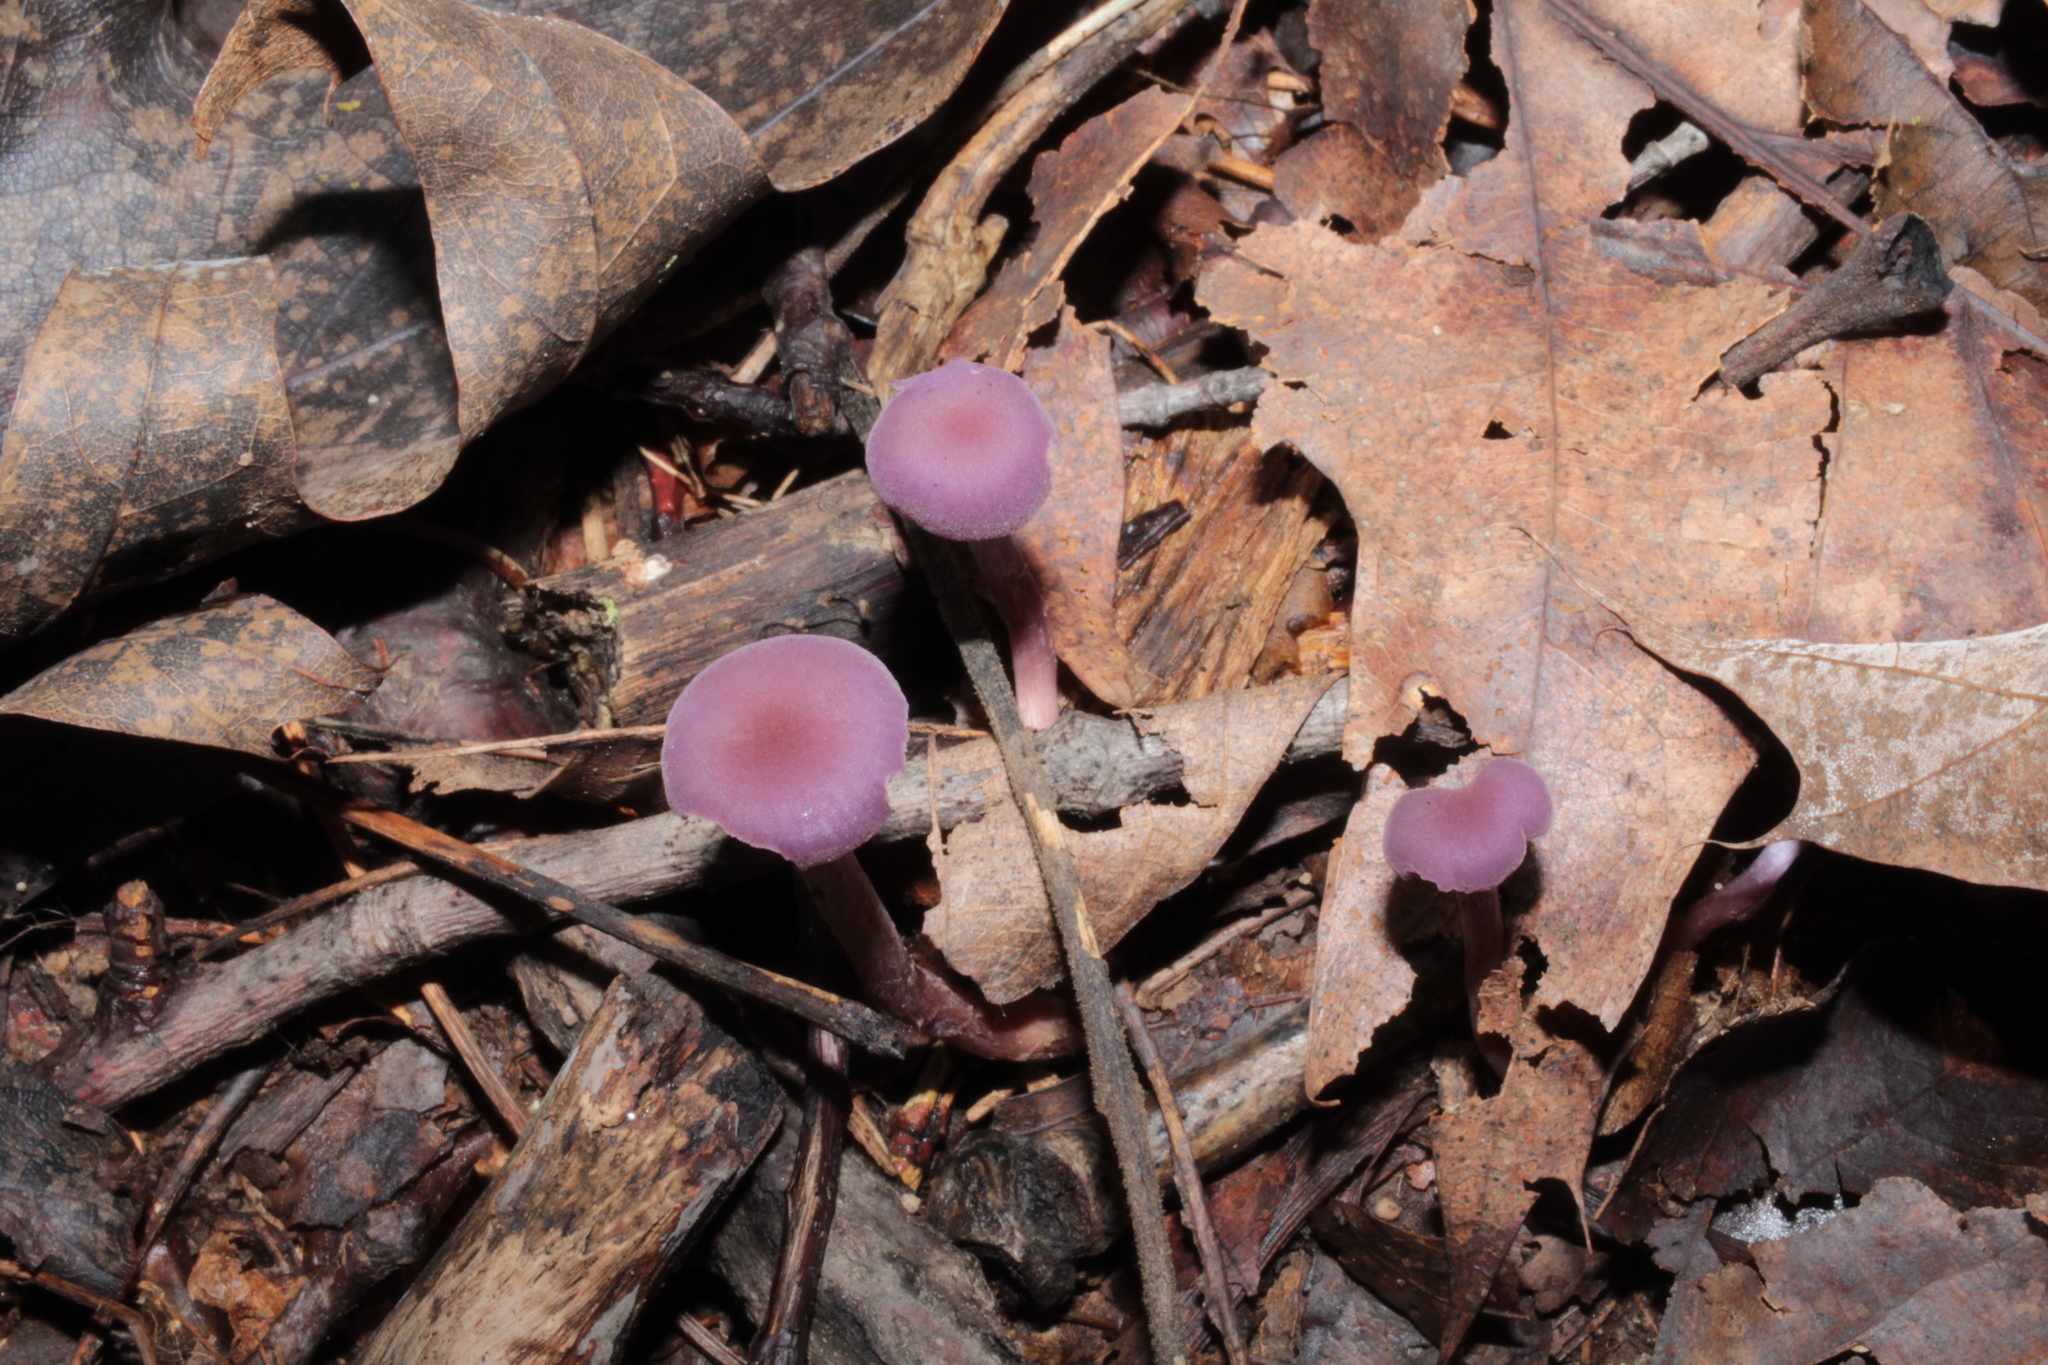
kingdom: Fungi
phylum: Basidiomycota
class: Agaricomycetes
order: Agaricales
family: Hydnangiaceae
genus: Laccaria
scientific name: Laccaria amethystina
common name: Amethyst deceiver
